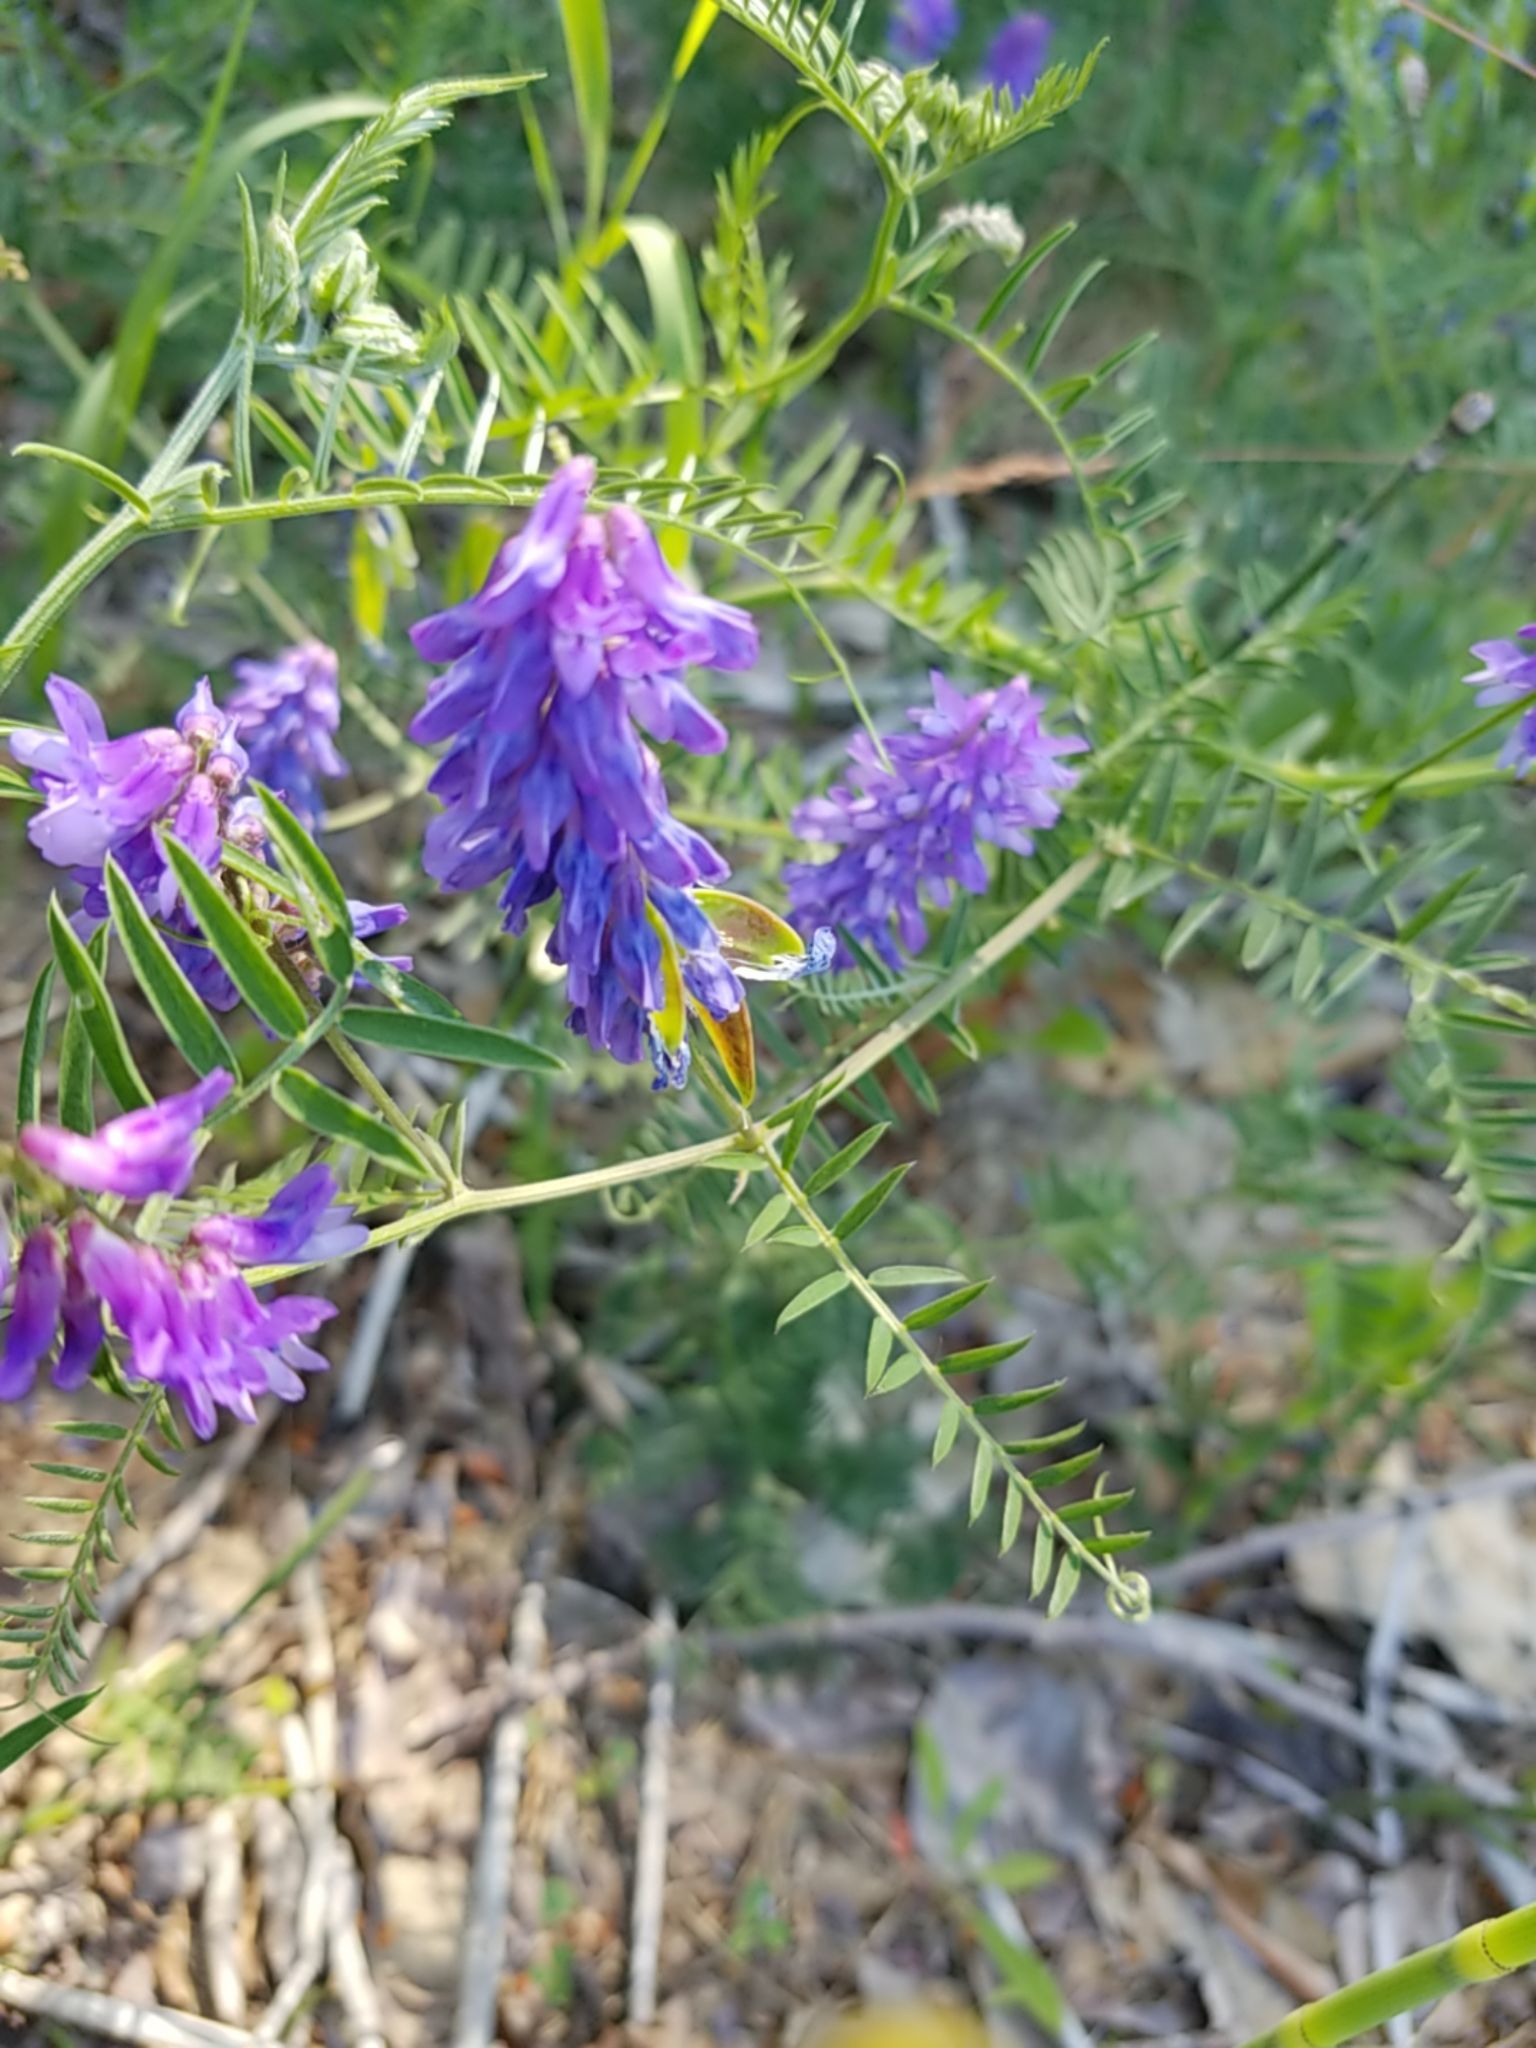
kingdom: Plantae
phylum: Tracheophyta
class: Magnoliopsida
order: Fabales
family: Fabaceae
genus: Vicia
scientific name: Vicia cracca
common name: Bird vetch
